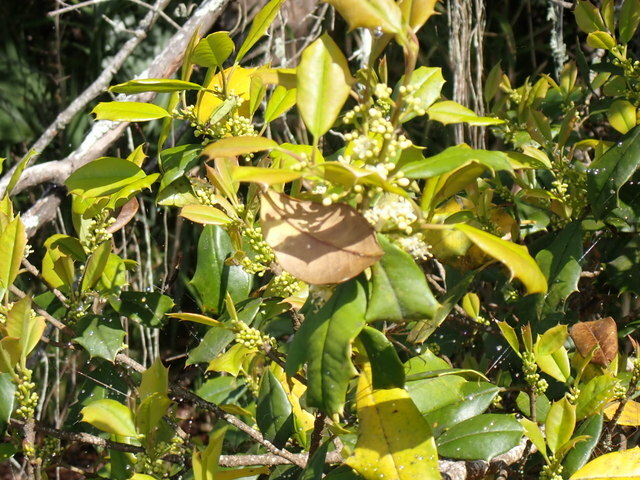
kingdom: Plantae
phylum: Tracheophyta
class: Magnoliopsida
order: Aquifoliales
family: Aquifoliaceae
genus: Ilex
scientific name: Ilex opaca
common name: American holly
